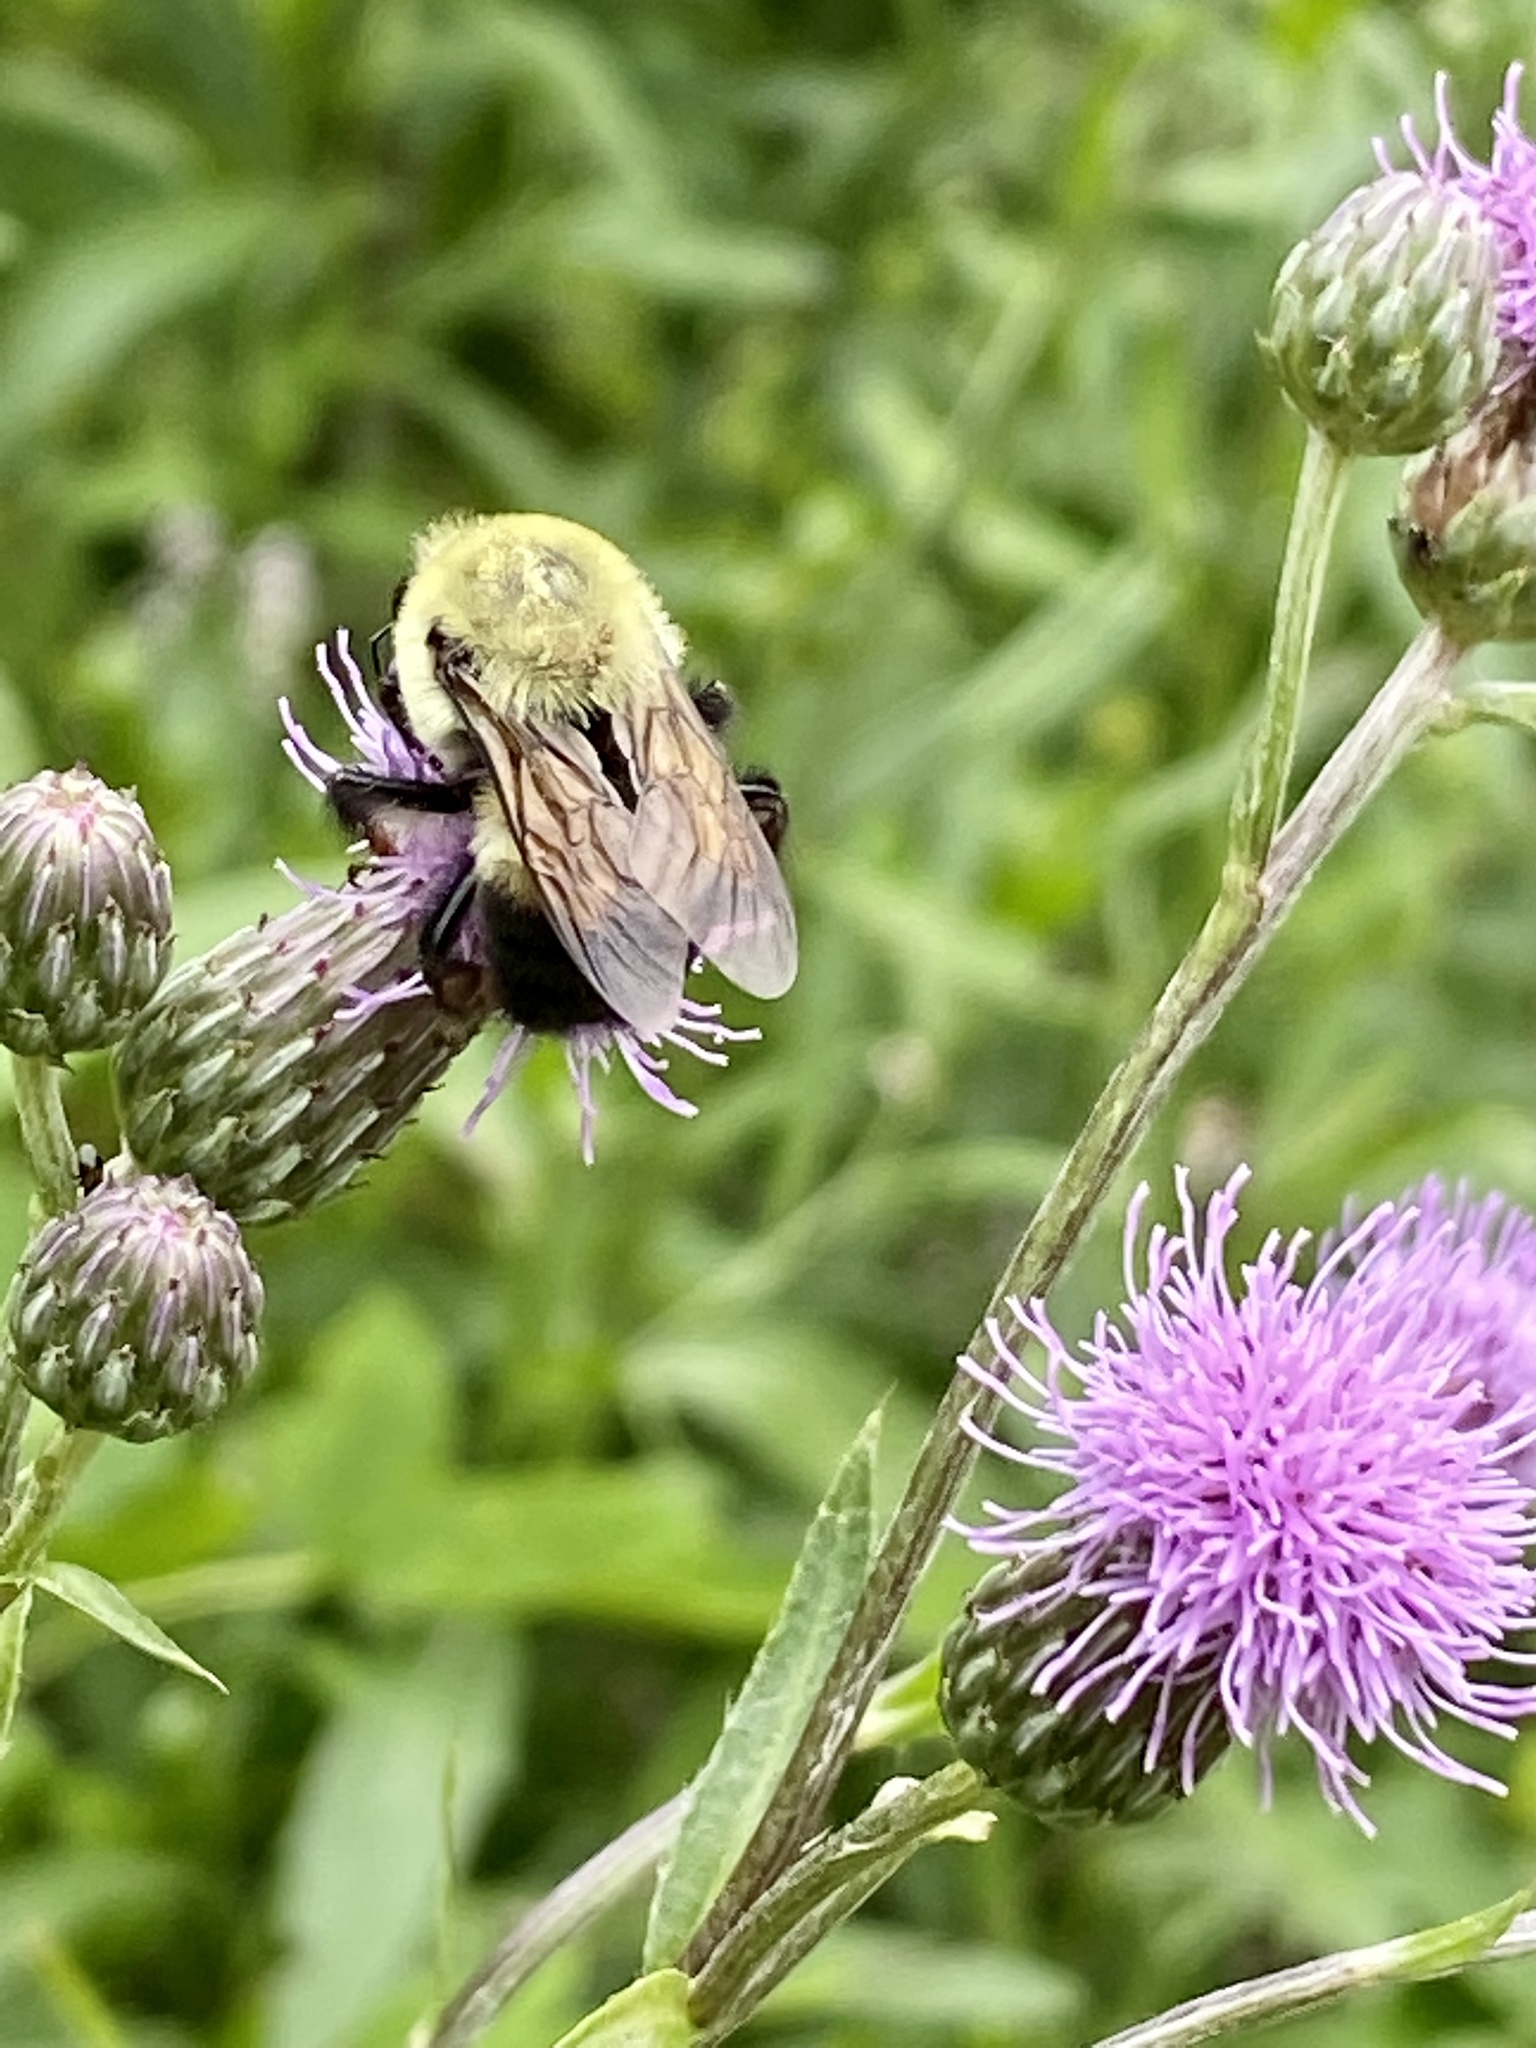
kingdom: Animalia
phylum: Arthropoda
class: Insecta
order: Hymenoptera
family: Apidae
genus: Bombus
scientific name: Bombus griseocollis
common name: Brown-belted bumble bee
